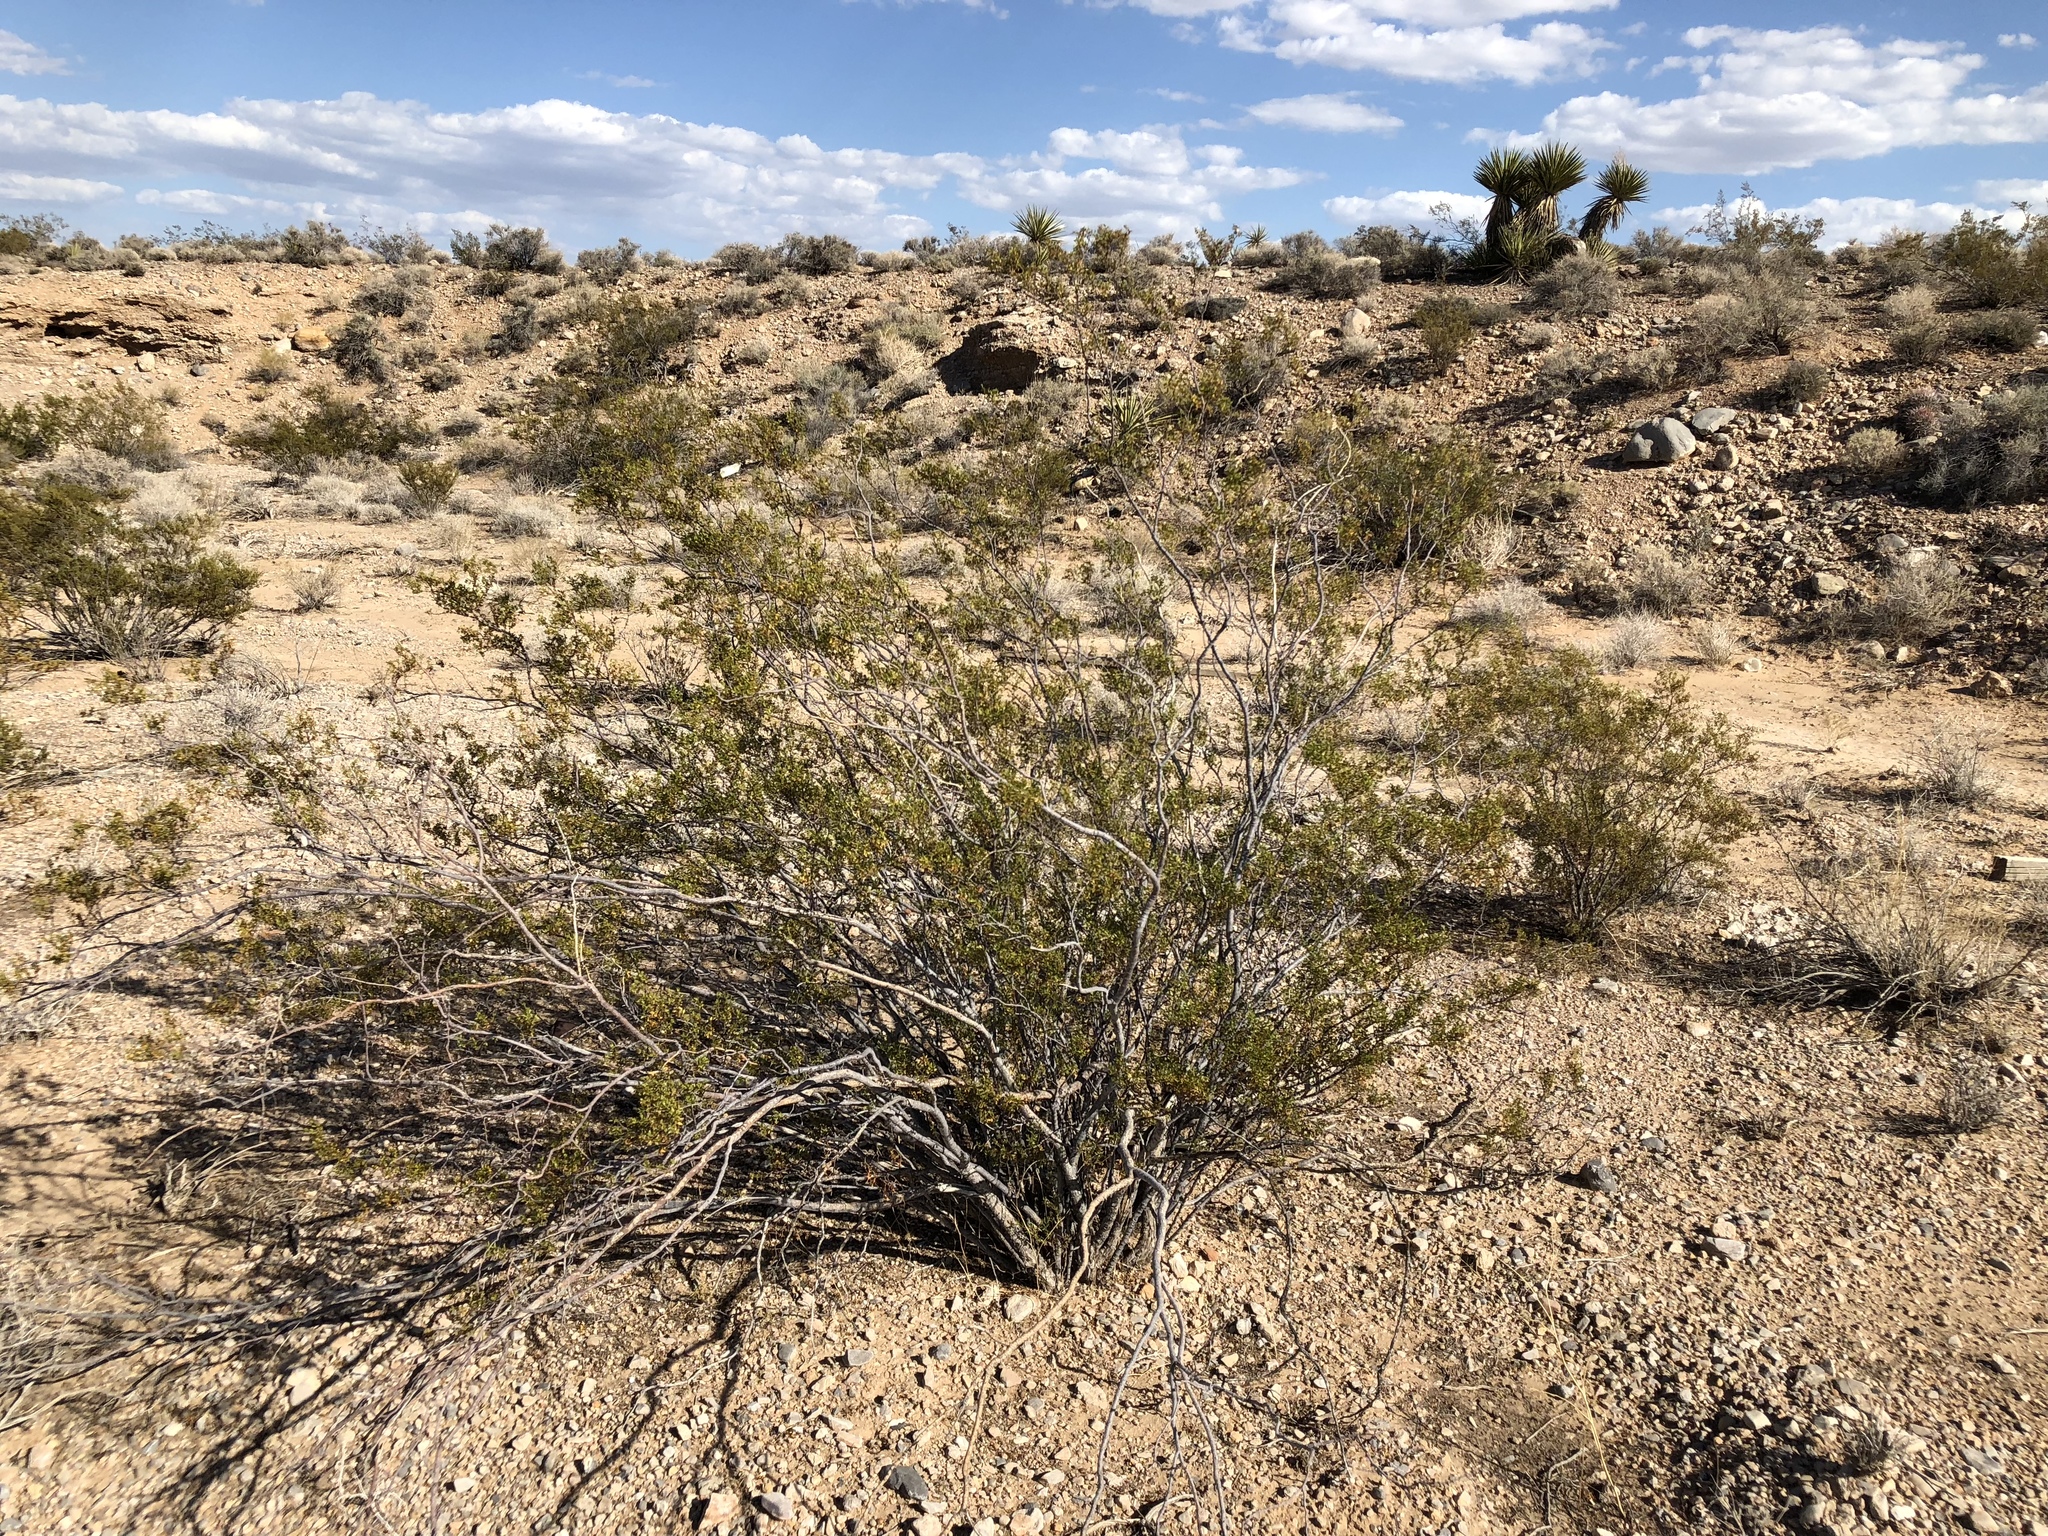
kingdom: Plantae
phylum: Tracheophyta
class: Magnoliopsida
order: Zygophyllales
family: Zygophyllaceae
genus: Larrea
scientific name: Larrea tridentata
